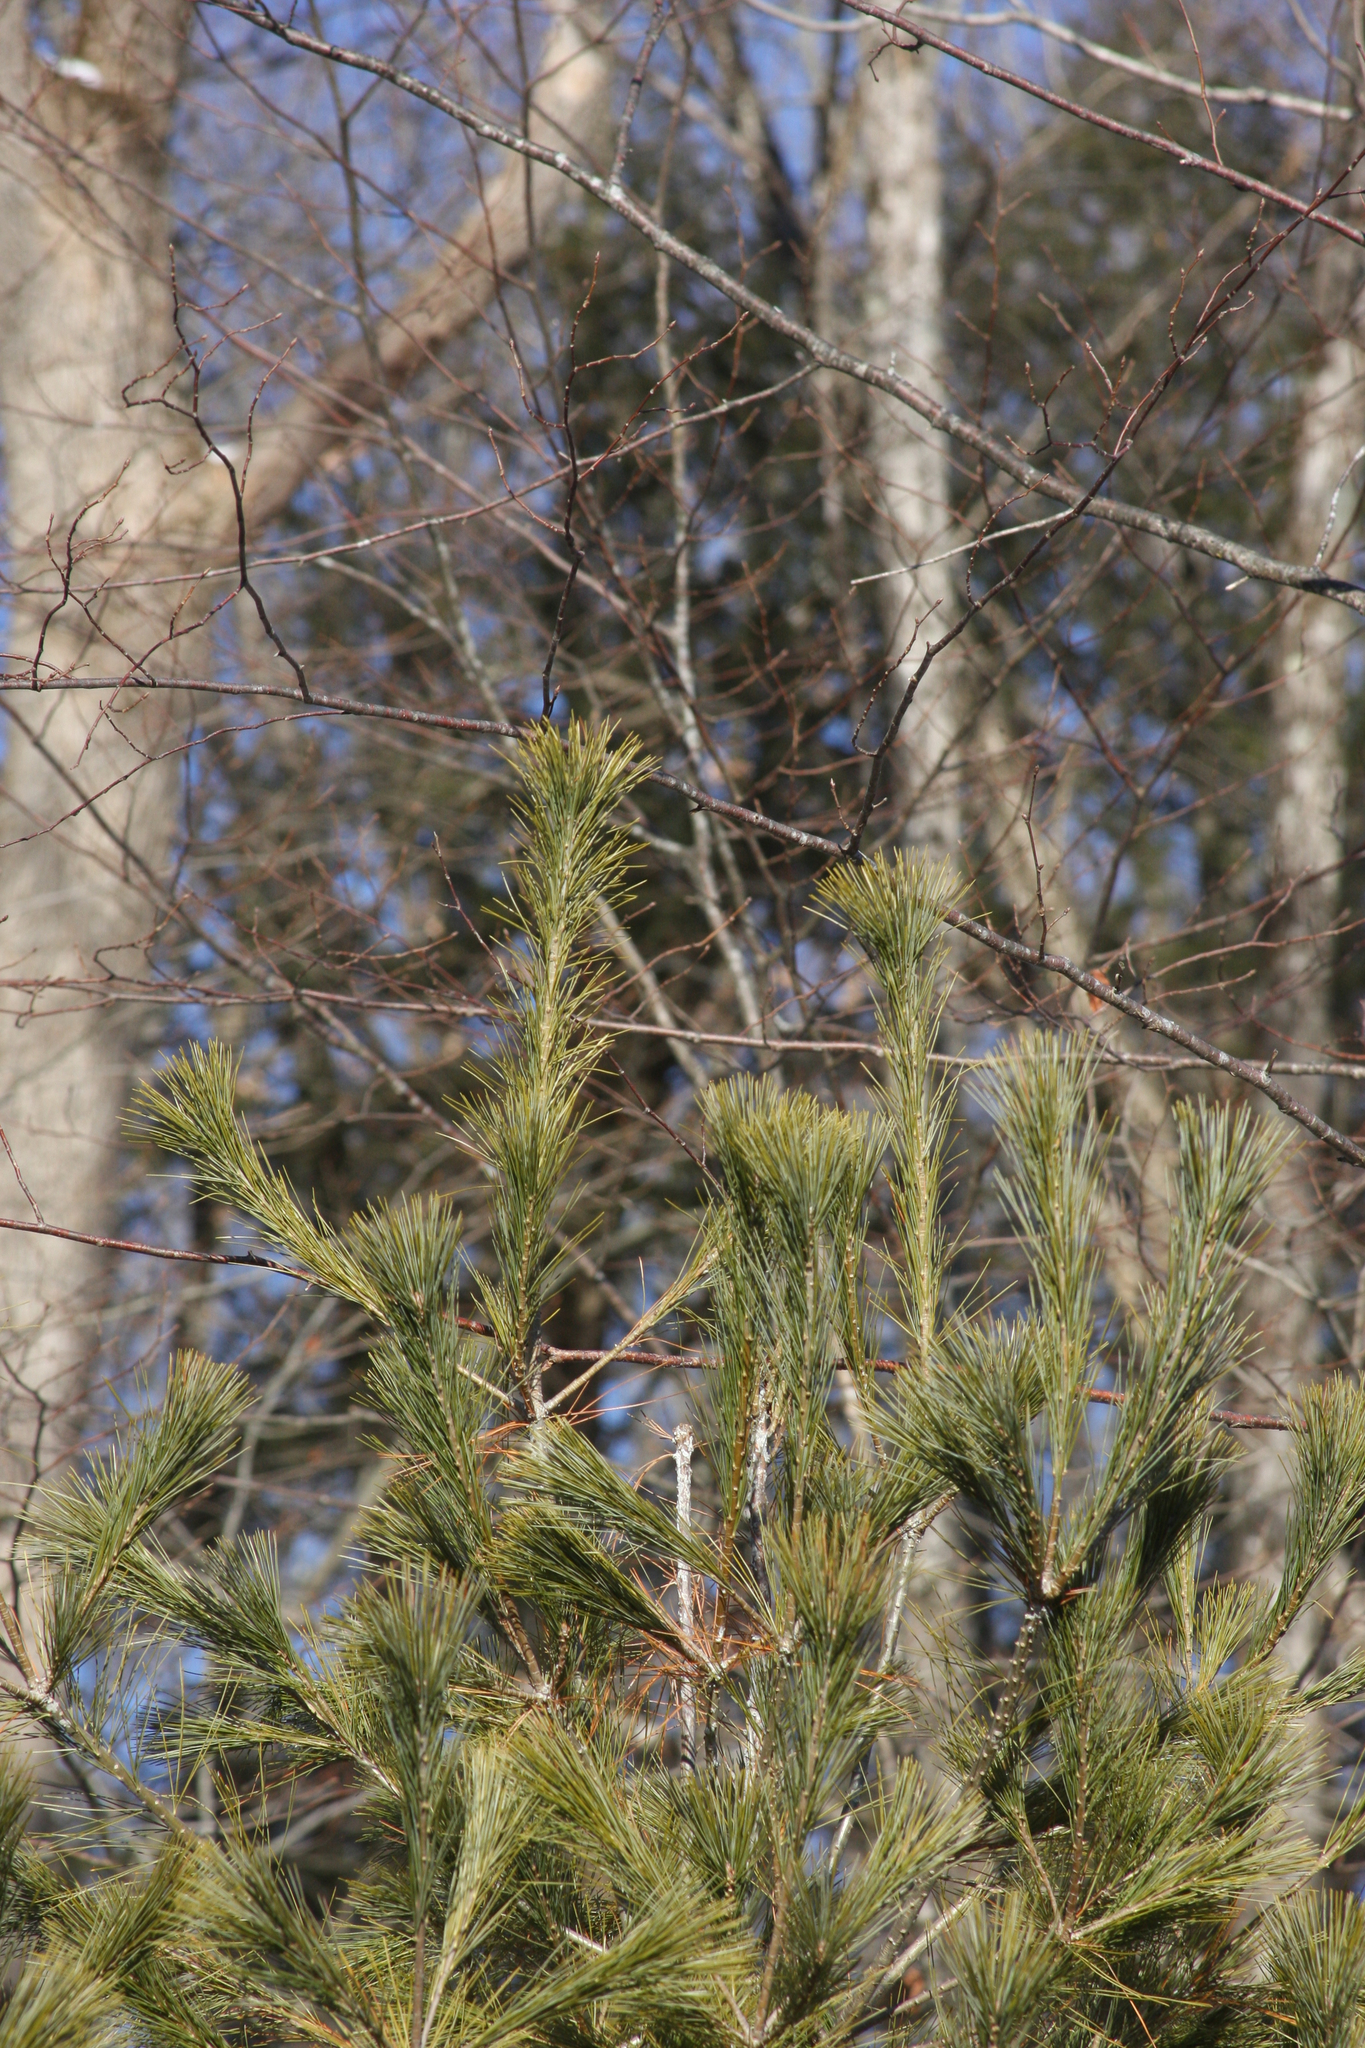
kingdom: Plantae
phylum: Tracheophyta
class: Pinopsida
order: Pinales
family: Pinaceae
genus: Pinus
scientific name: Pinus strobus
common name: Weymouth pine
